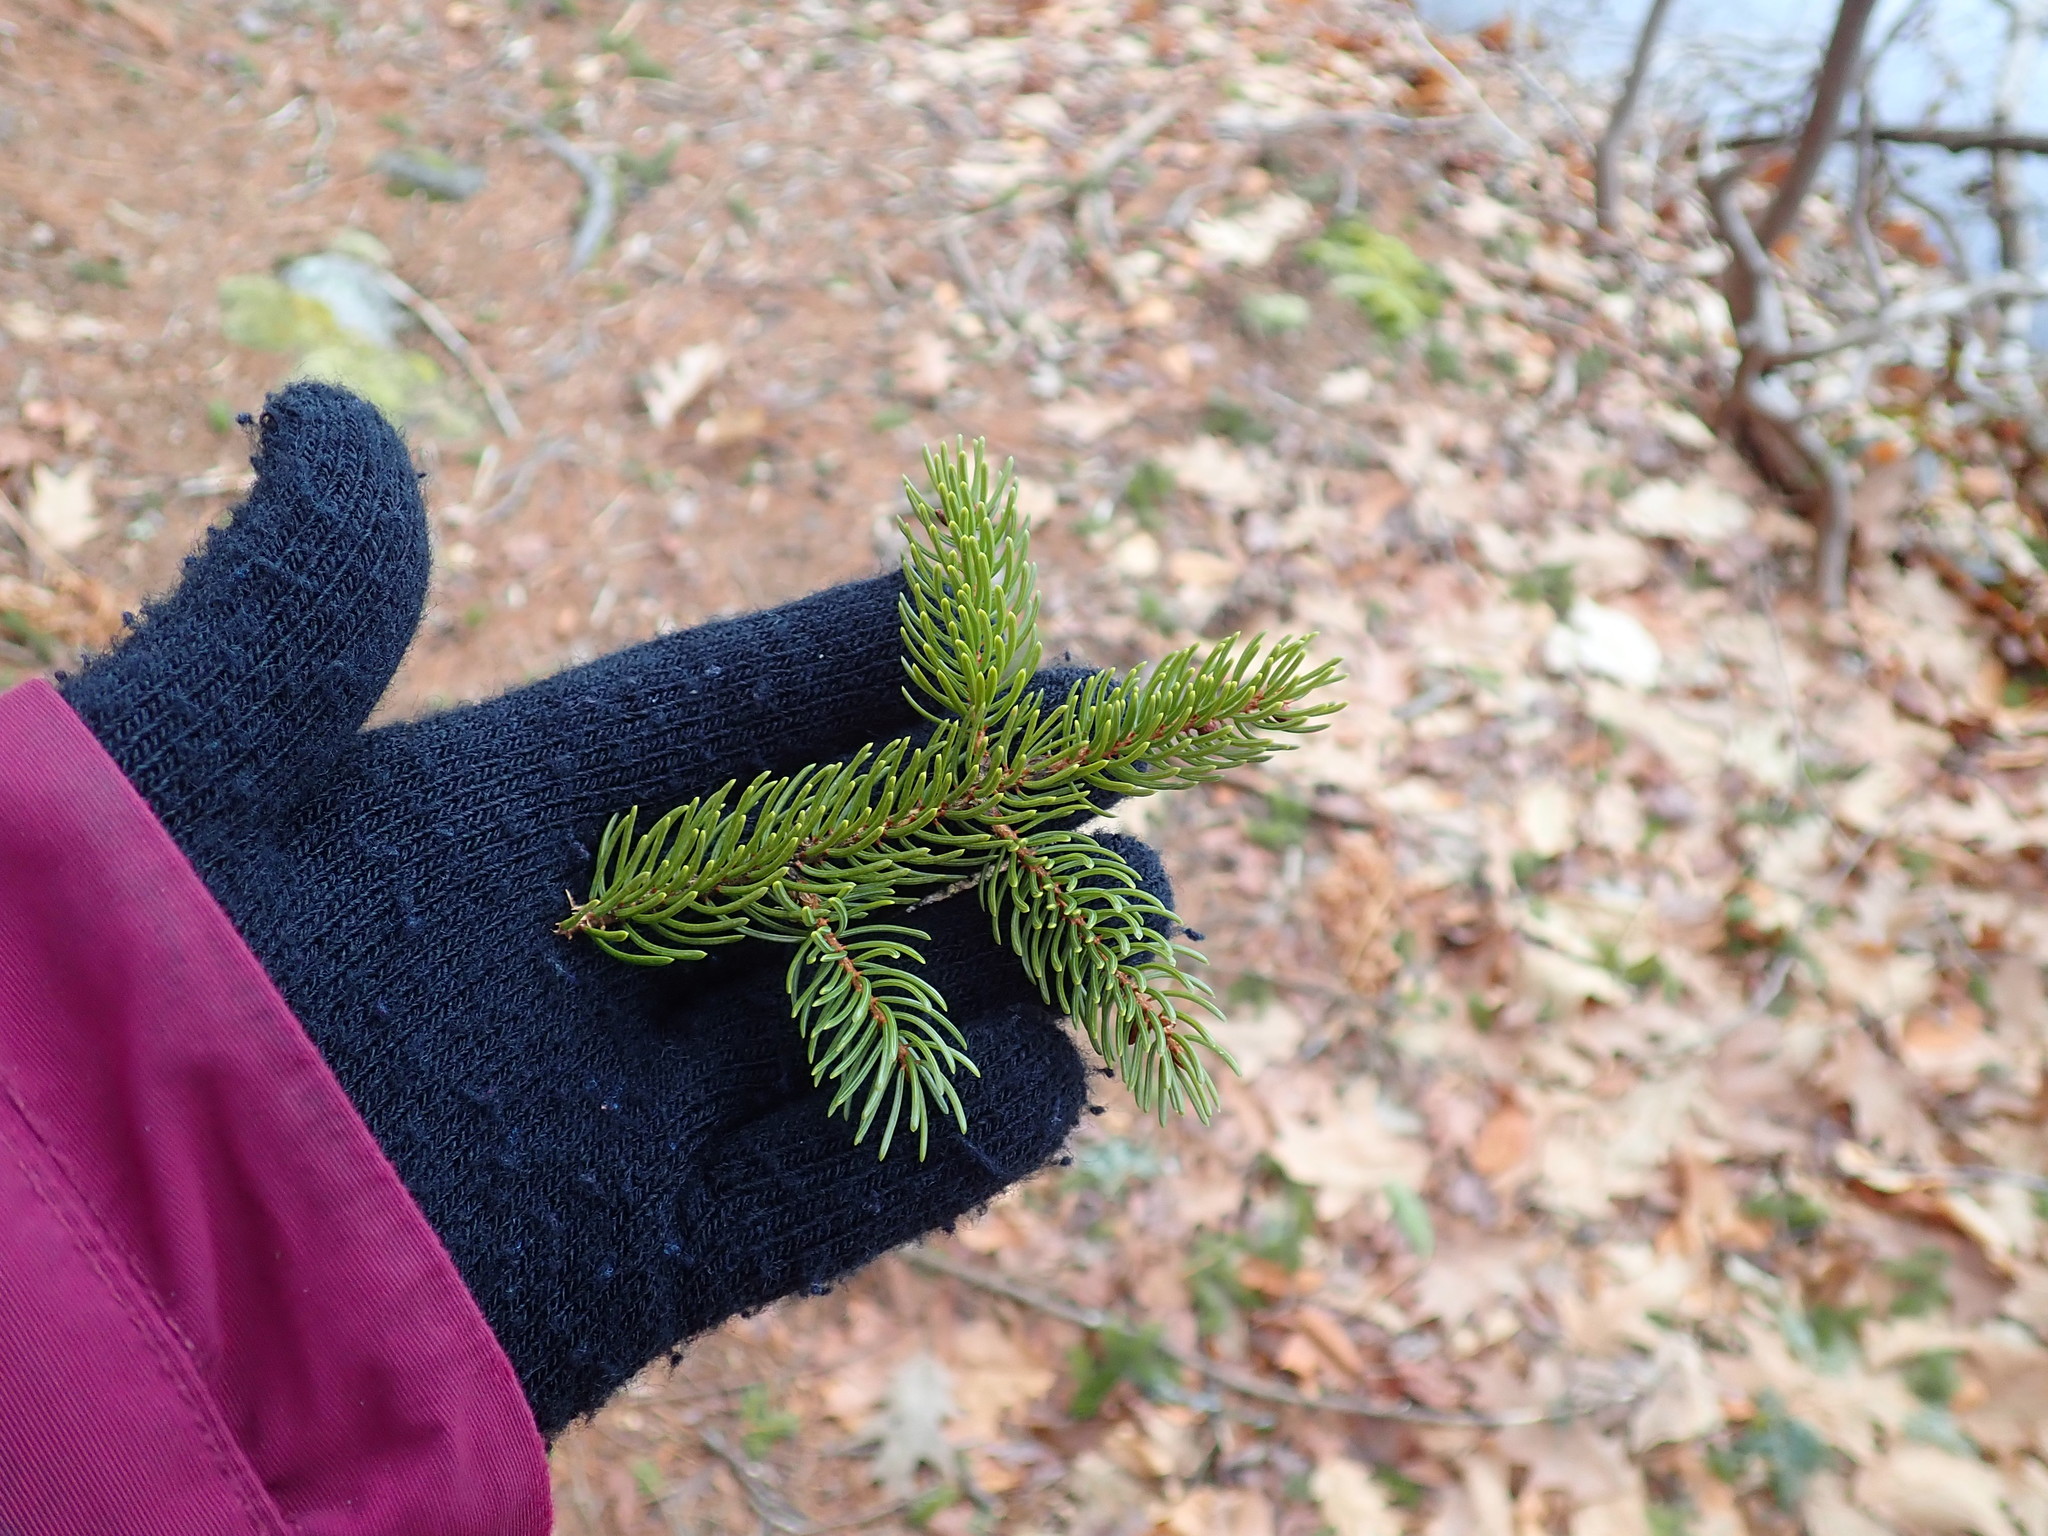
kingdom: Plantae
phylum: Tracheophyta
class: Pinopsida
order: Pinales
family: Pinaceae
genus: Picea
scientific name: Picea mariana
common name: Black spruce
